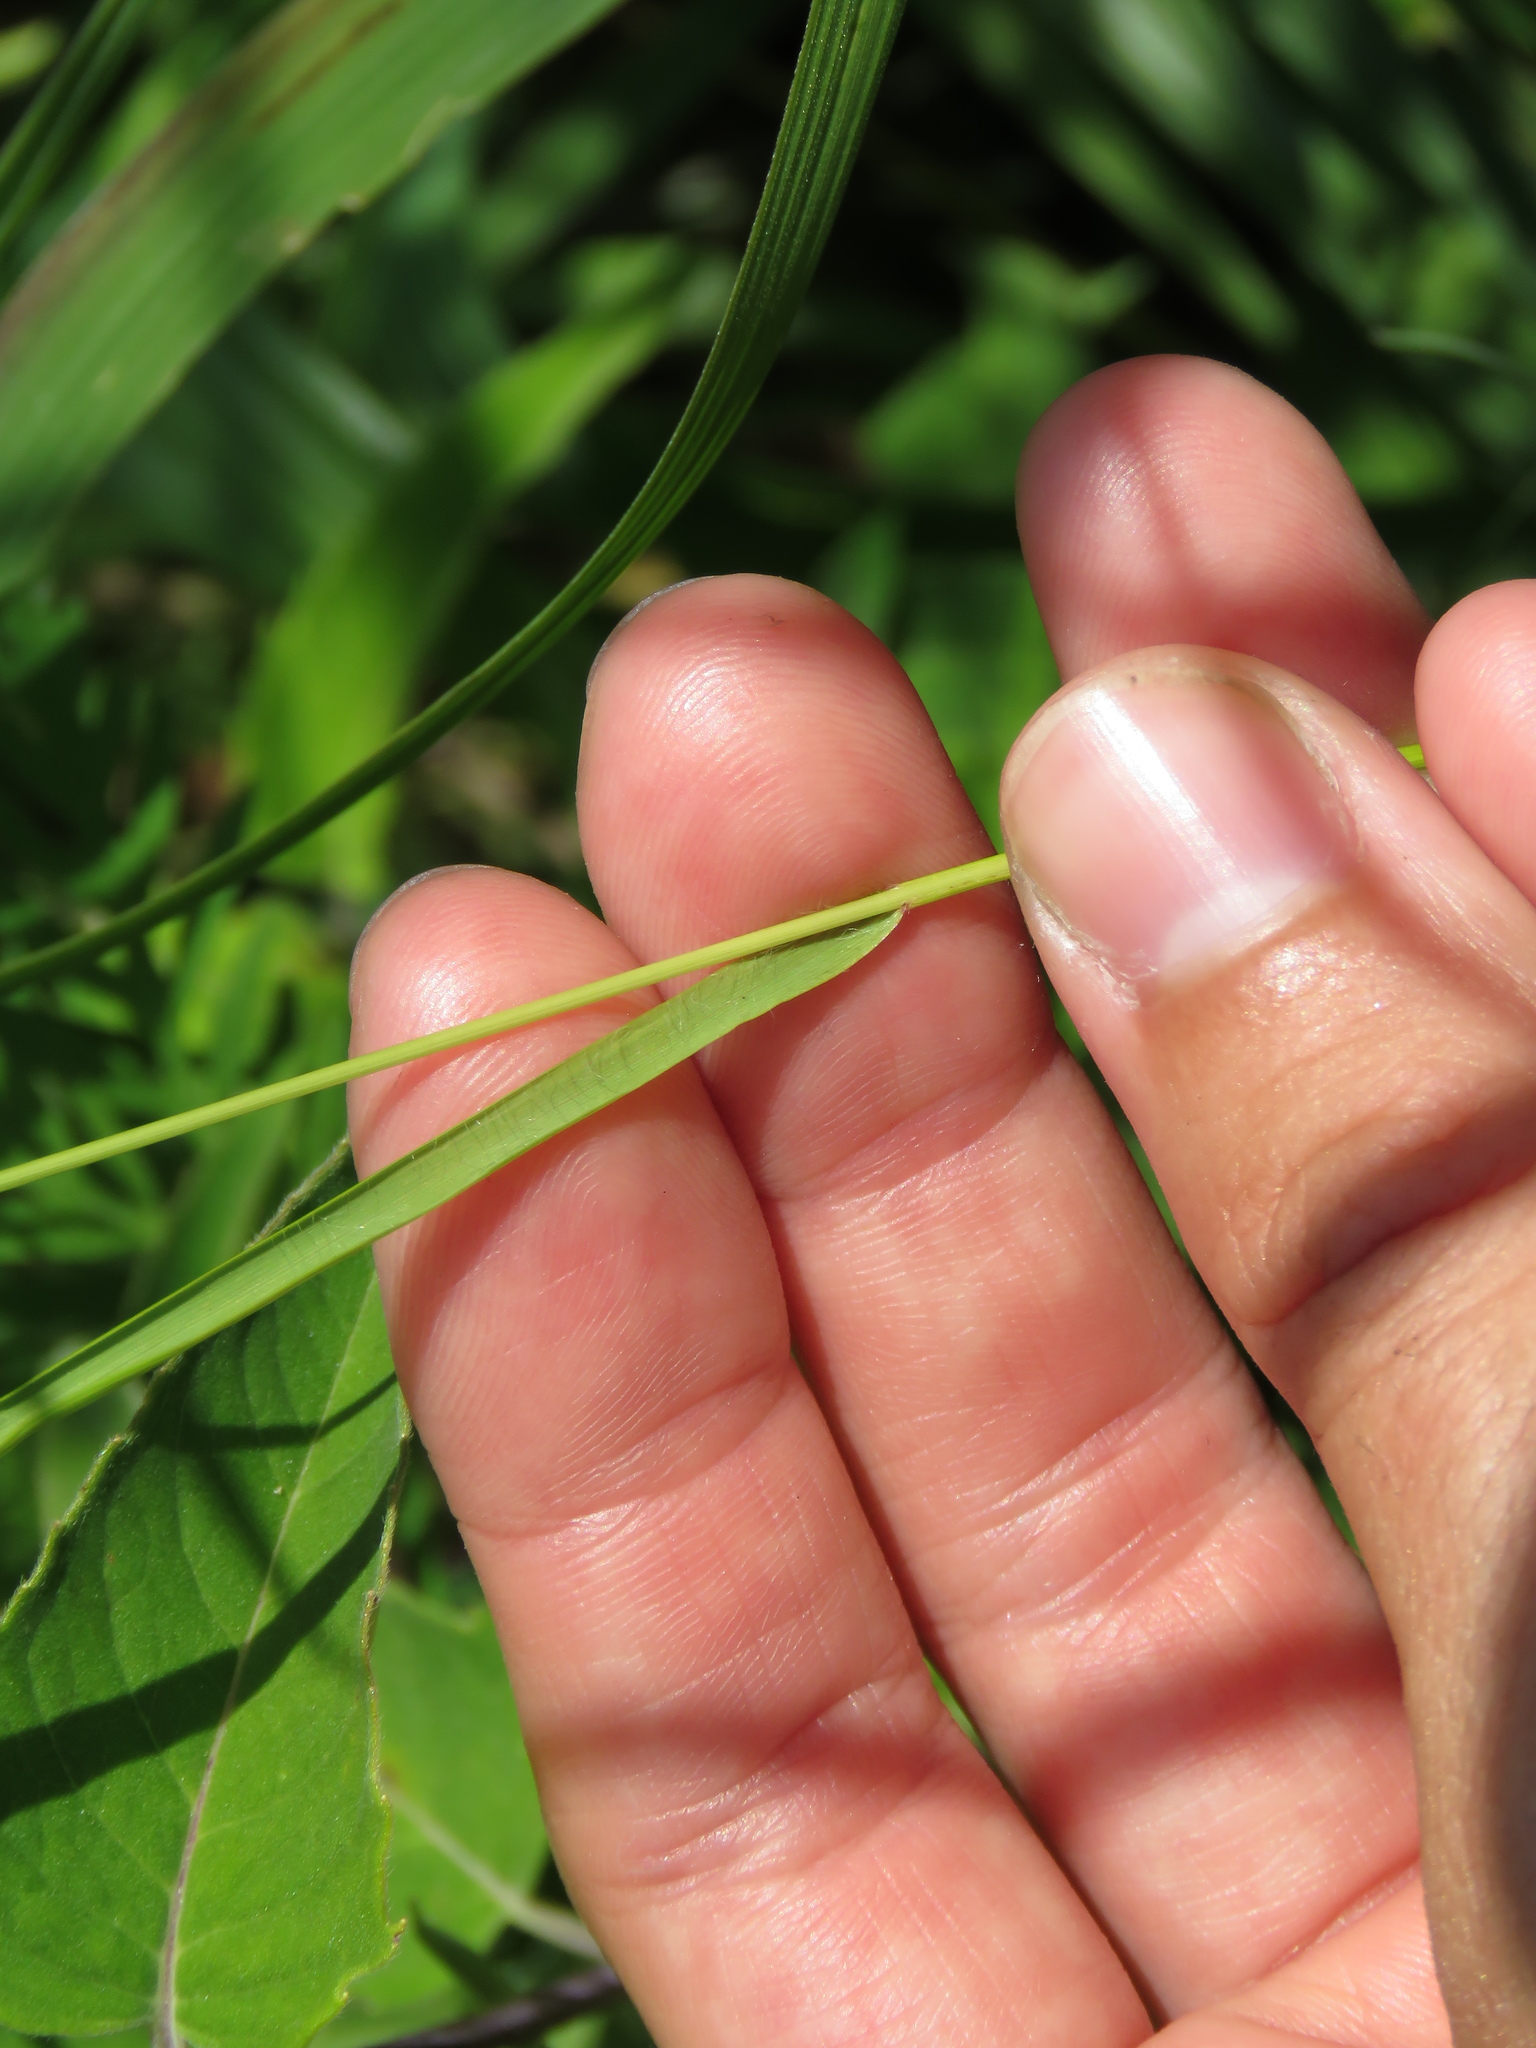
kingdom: Plantae
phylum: Tracheophyta
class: Liliopsida
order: Poales
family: Poaceae
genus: Bromus
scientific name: Bromus kalmii
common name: Kalm brome
